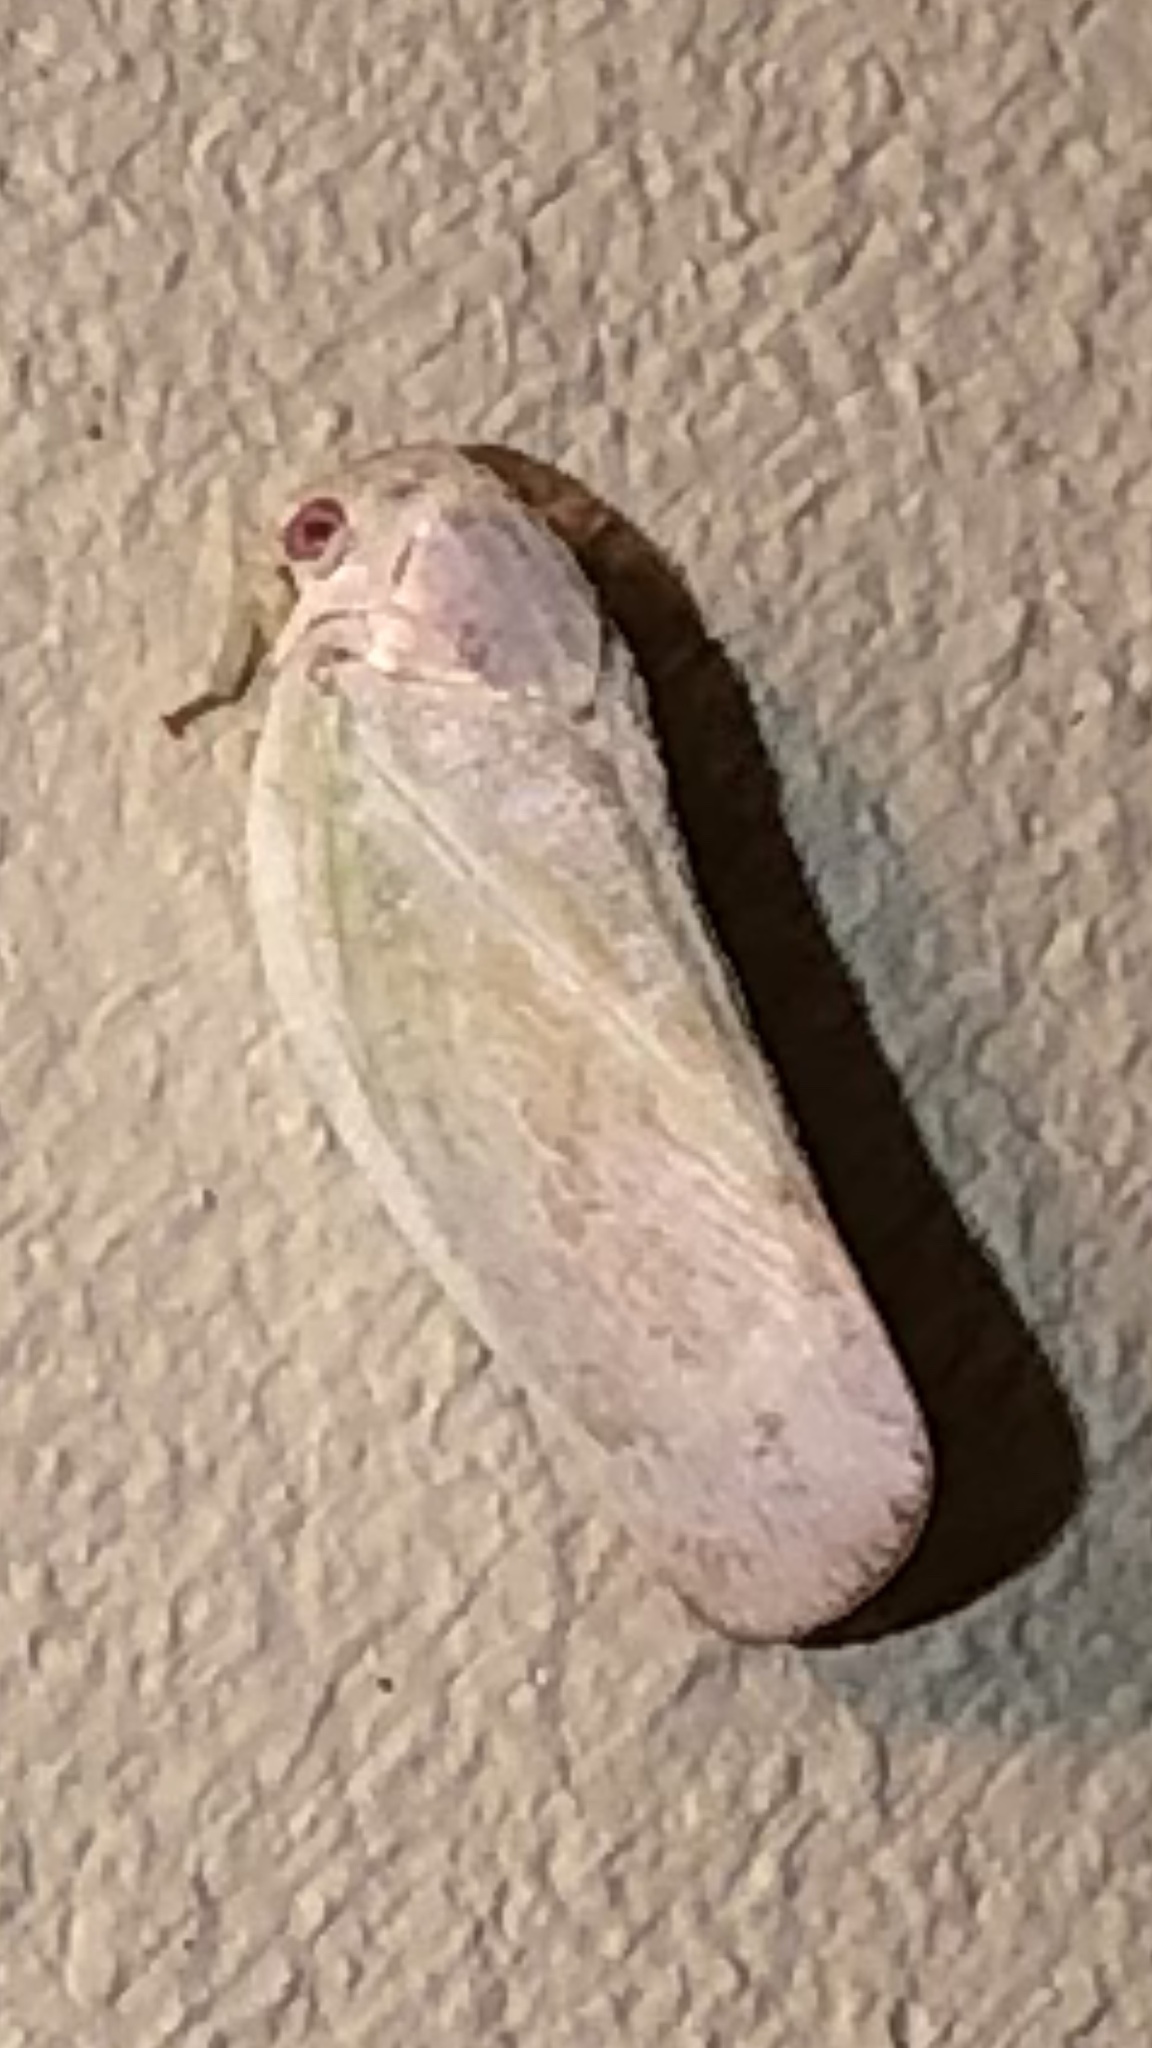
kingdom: Animalia
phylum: Arthropoda
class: Insecta
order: Hemiptera
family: Flatidae
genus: Flatormenis
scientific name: Flatormenis saucia
